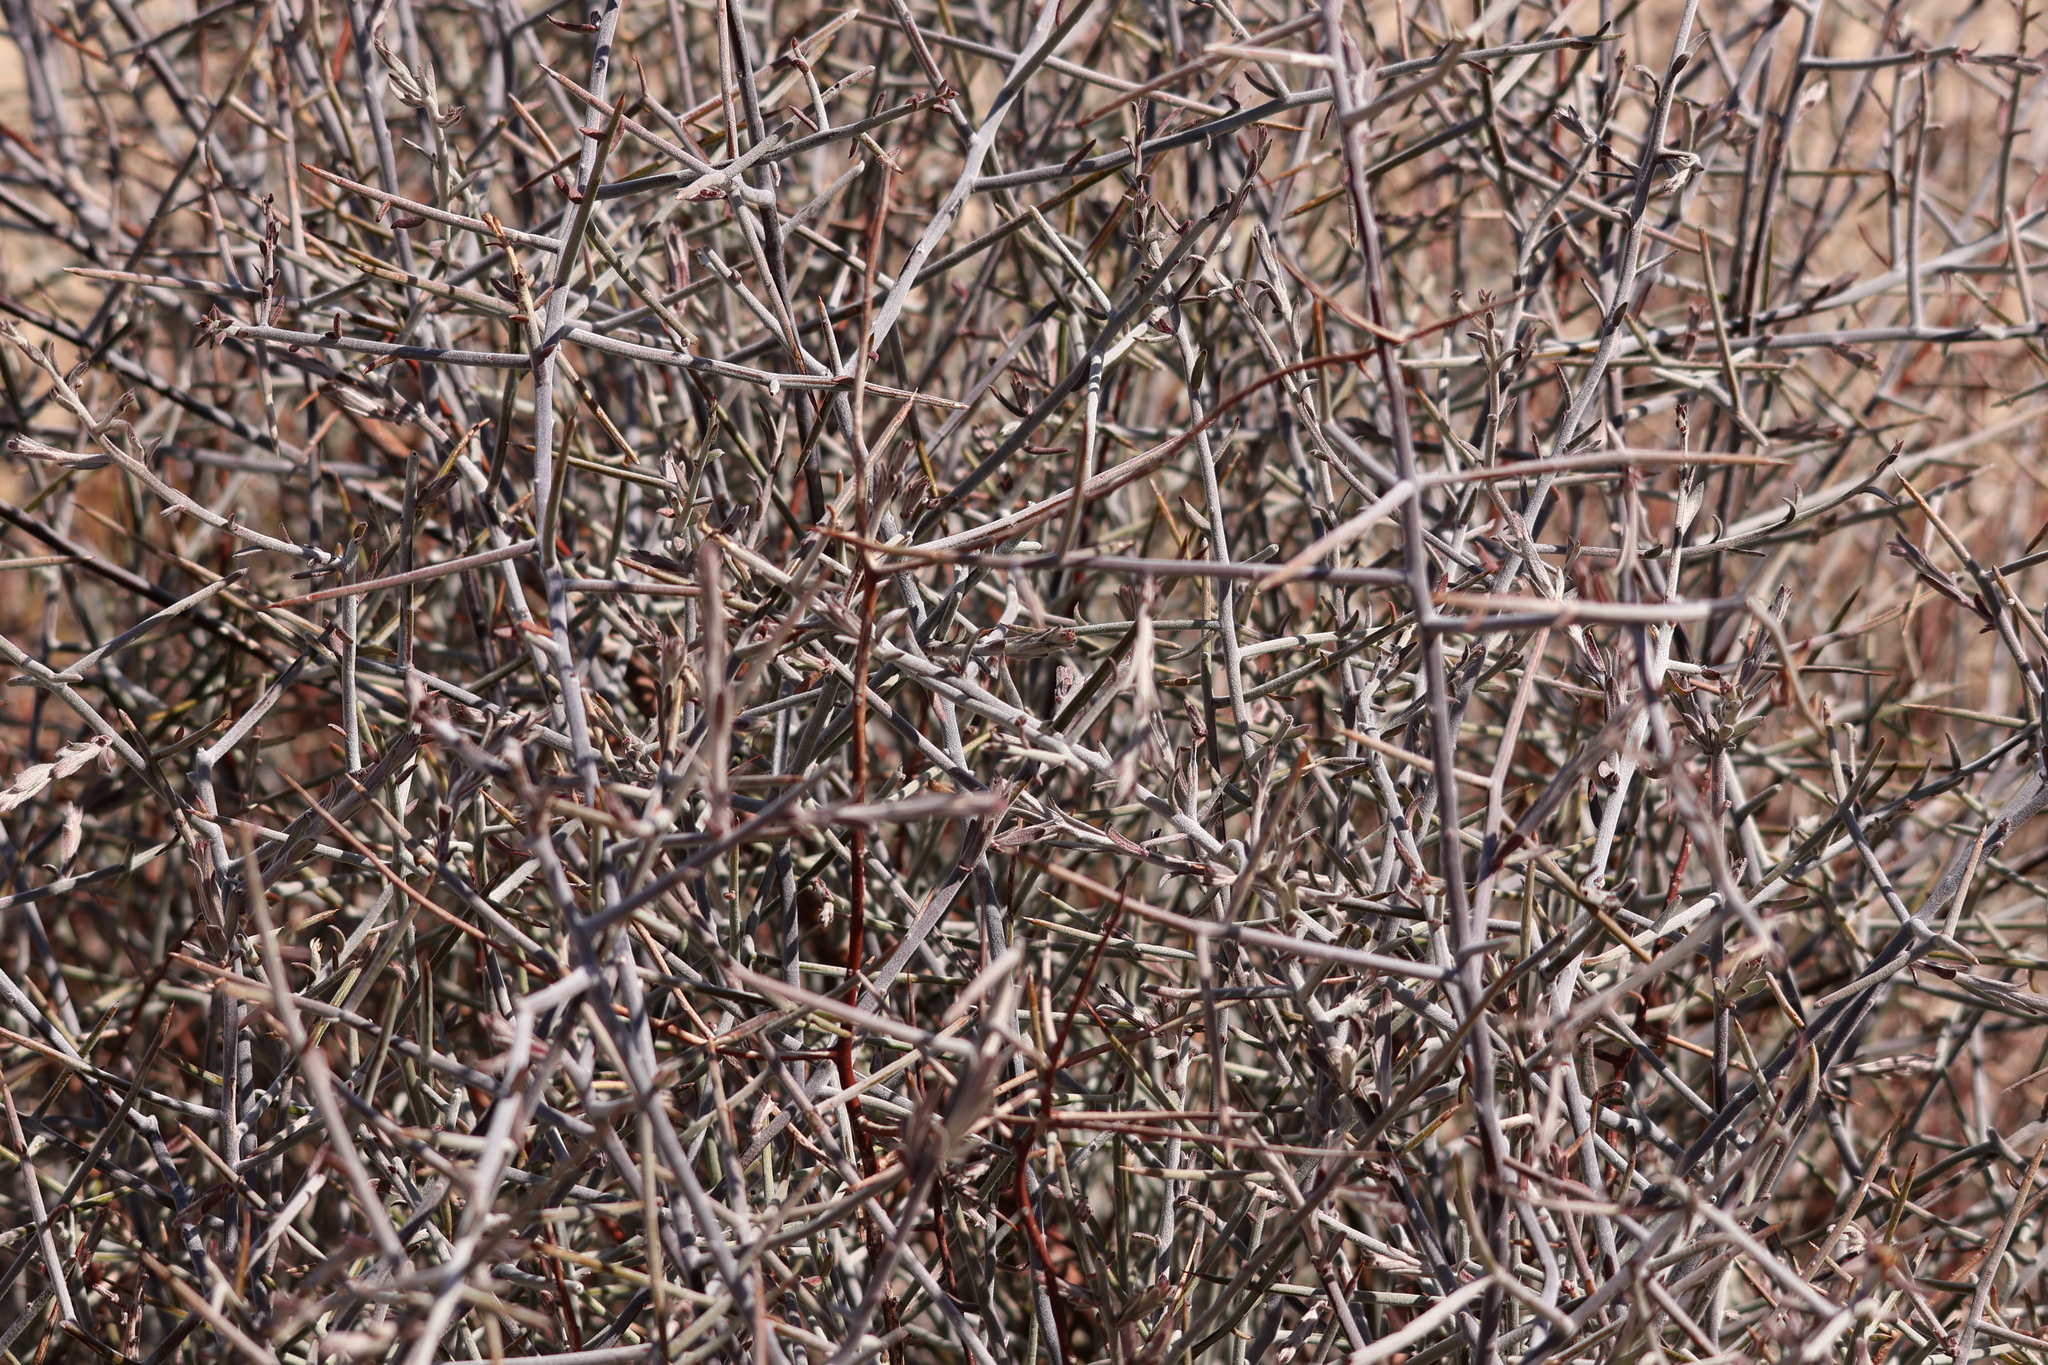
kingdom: Plantae
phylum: Tracheophyta
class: Magnoliopsida
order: Zygophyllales
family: Krameriaceae
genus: Krameria
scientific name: Krameria bicolor
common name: White ratany
